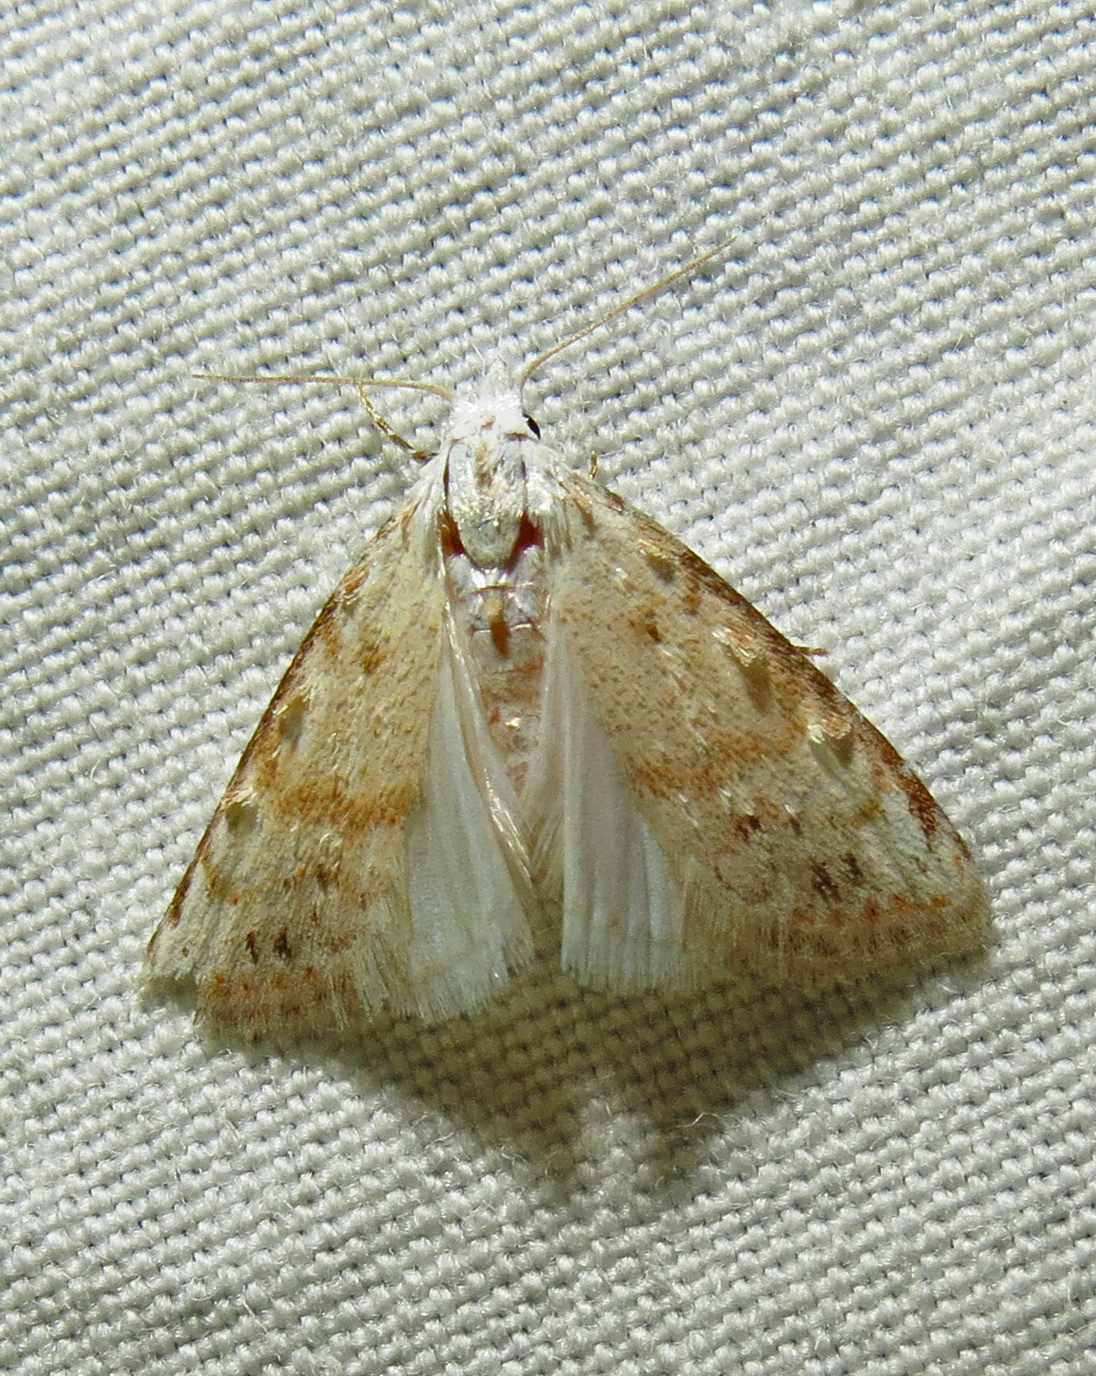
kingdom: Animalia
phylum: Arthropoda
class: Insecta
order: Lepidoptera
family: Nolidae
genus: Nola
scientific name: Nola cereella
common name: Sorghum webworm moth
